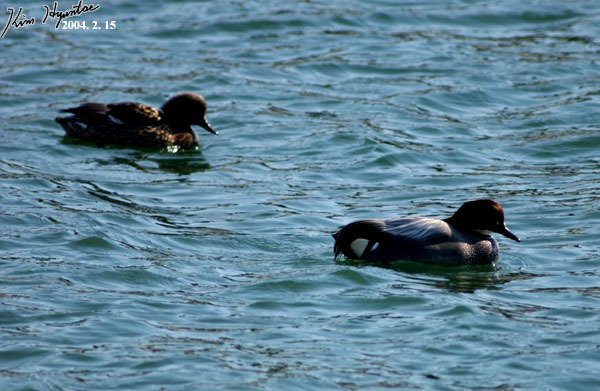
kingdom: Animalia
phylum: Chordata
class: Aves
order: Anseriformes
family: Anatidae
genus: Mareca
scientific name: Mareca falcata
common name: Falcated duck
